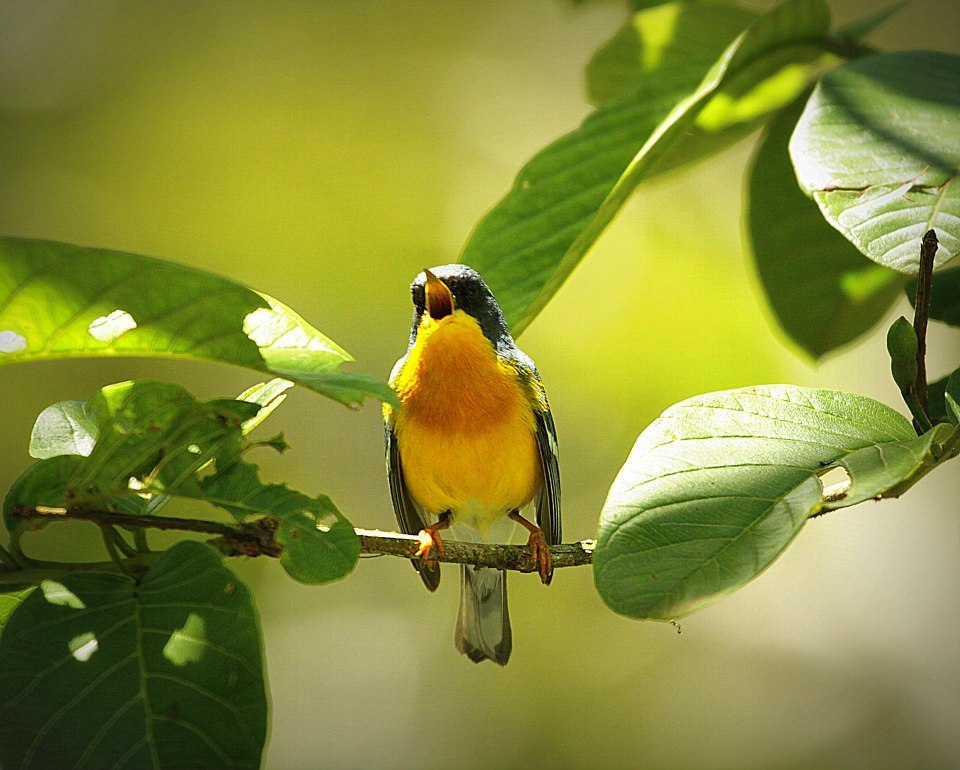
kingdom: Animalia
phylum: Chordata
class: Aves
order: Passeriformes
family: Parulidae
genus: Setophaga
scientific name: Setophaga pitiayumi
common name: Tropical parula
